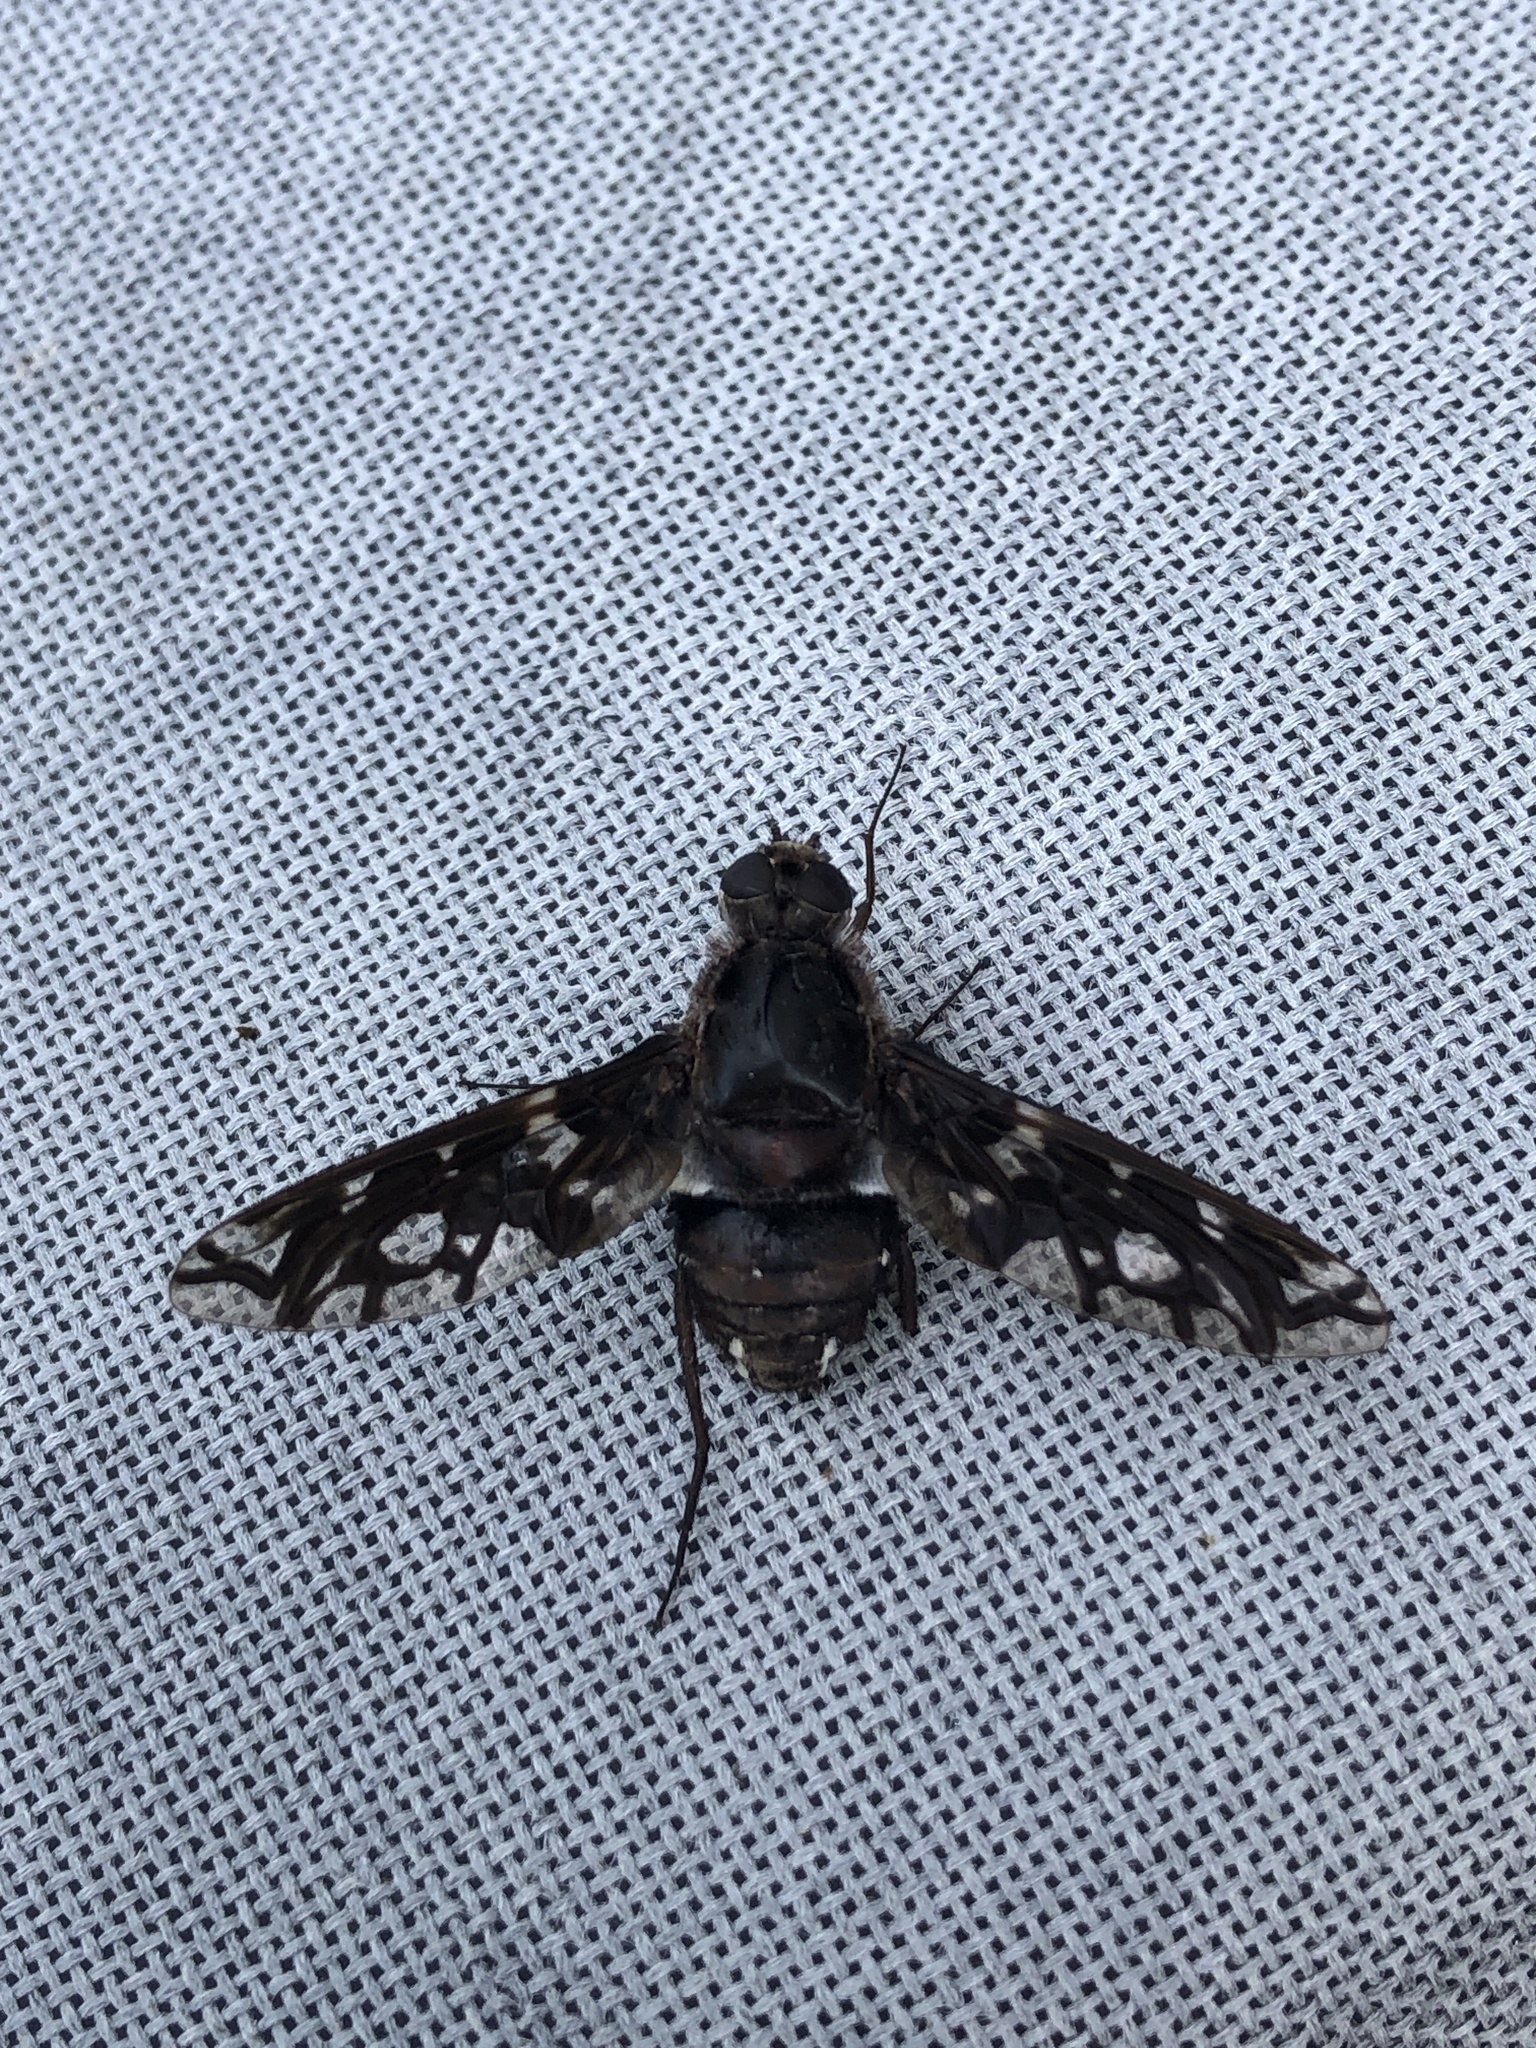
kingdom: Animalia
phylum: Arthropoda
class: Insecta
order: Diptera
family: Bombyliidae
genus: Xenox
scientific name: Xenox tigrinus
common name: Tiger bee fly
